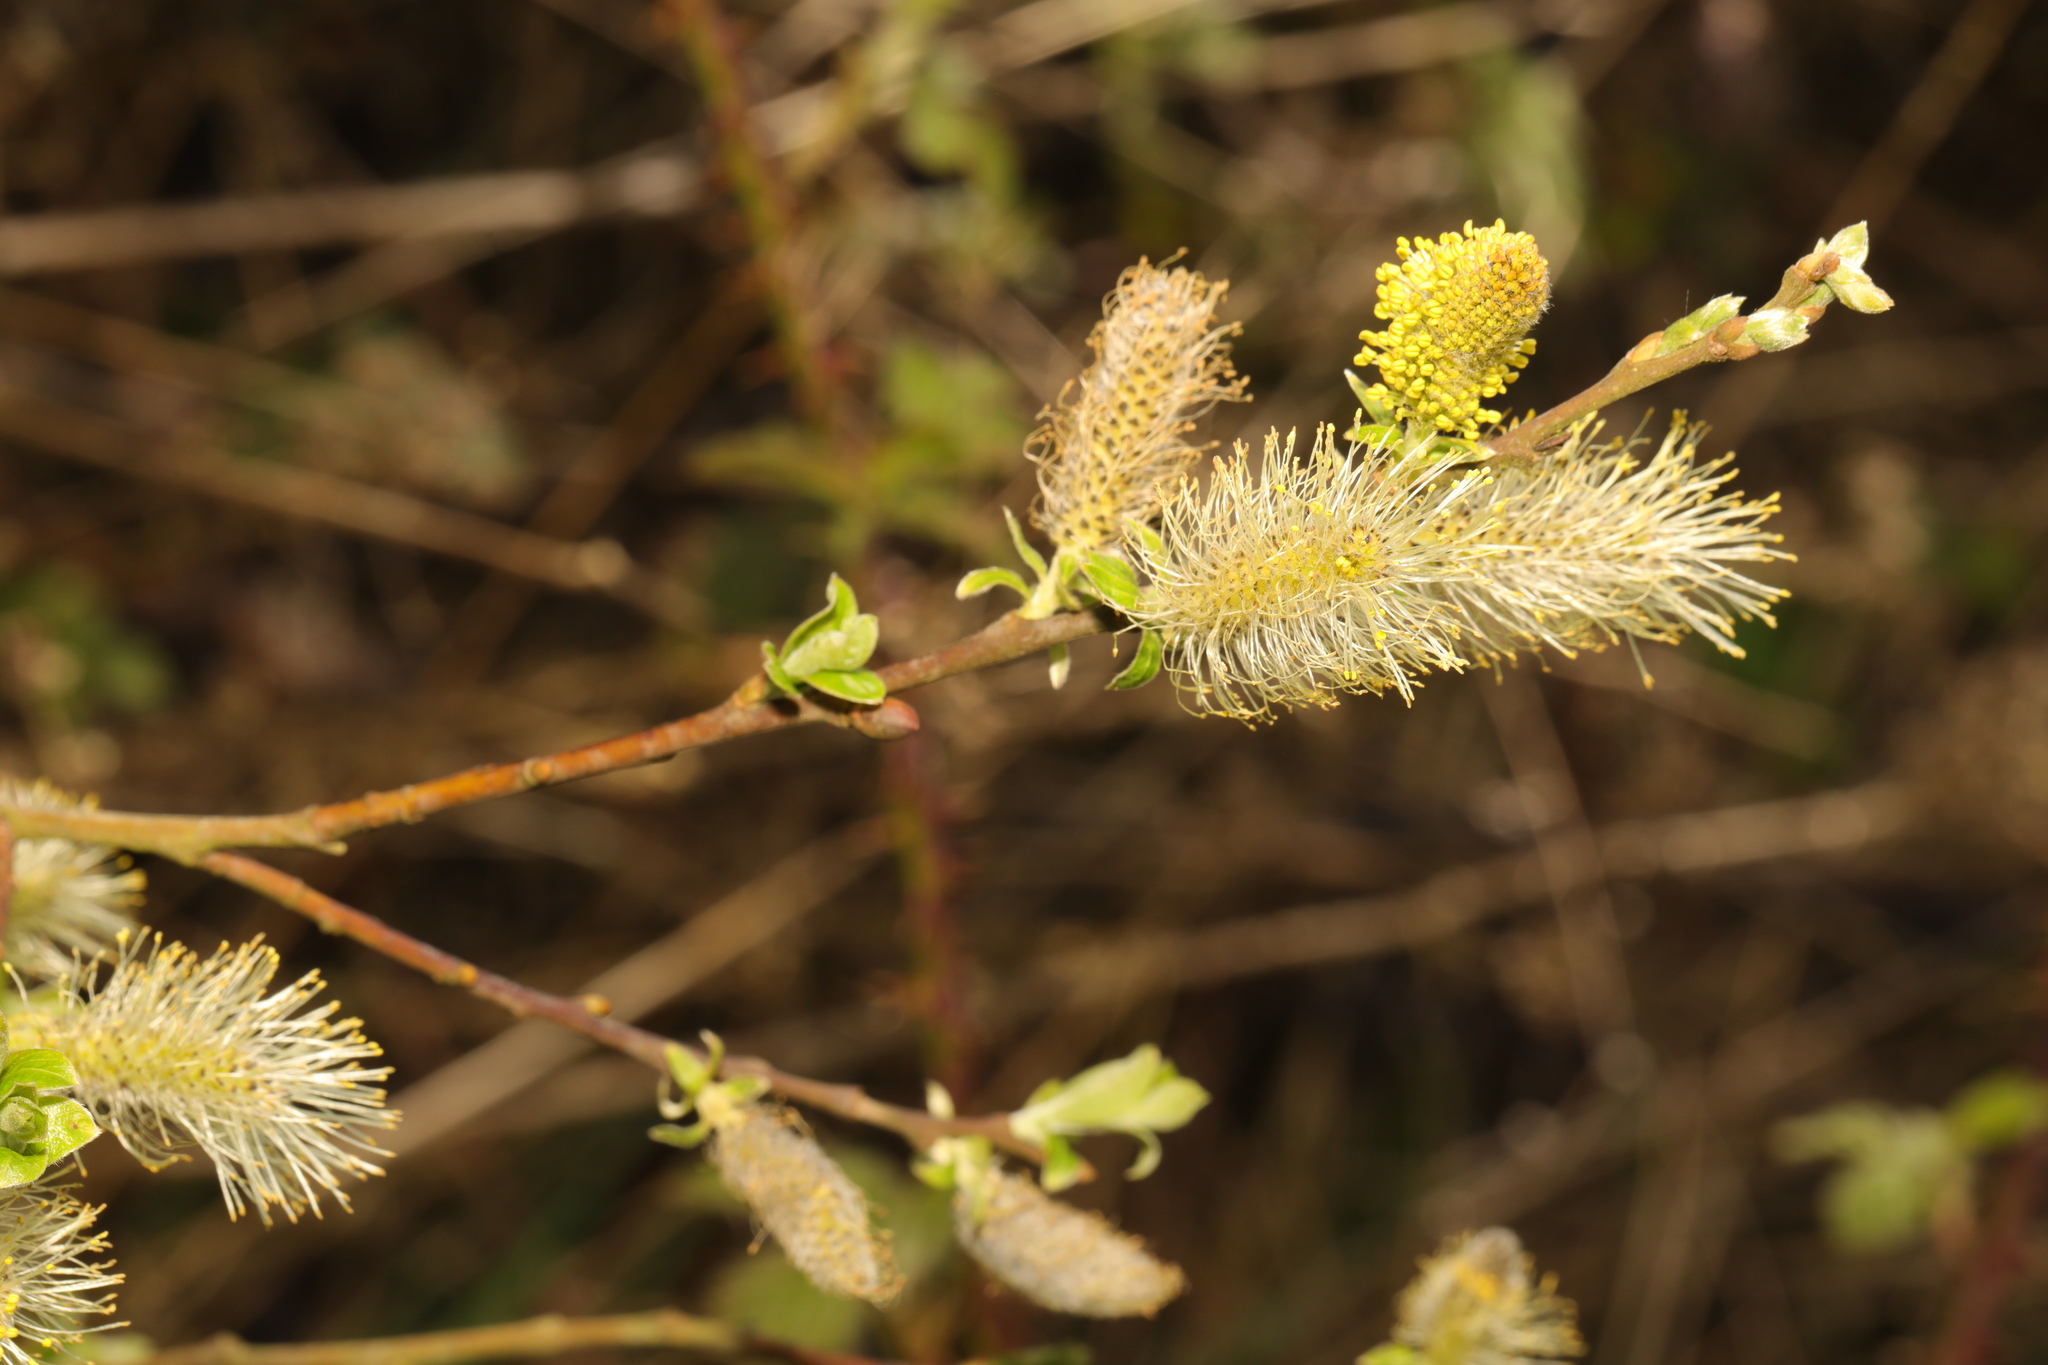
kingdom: Plantae
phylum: Tracheophyta
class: Magnoliopsida
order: Malpighiales
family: Salicaceae
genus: Salix
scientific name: Salix atrocinerea
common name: Rusty willow
